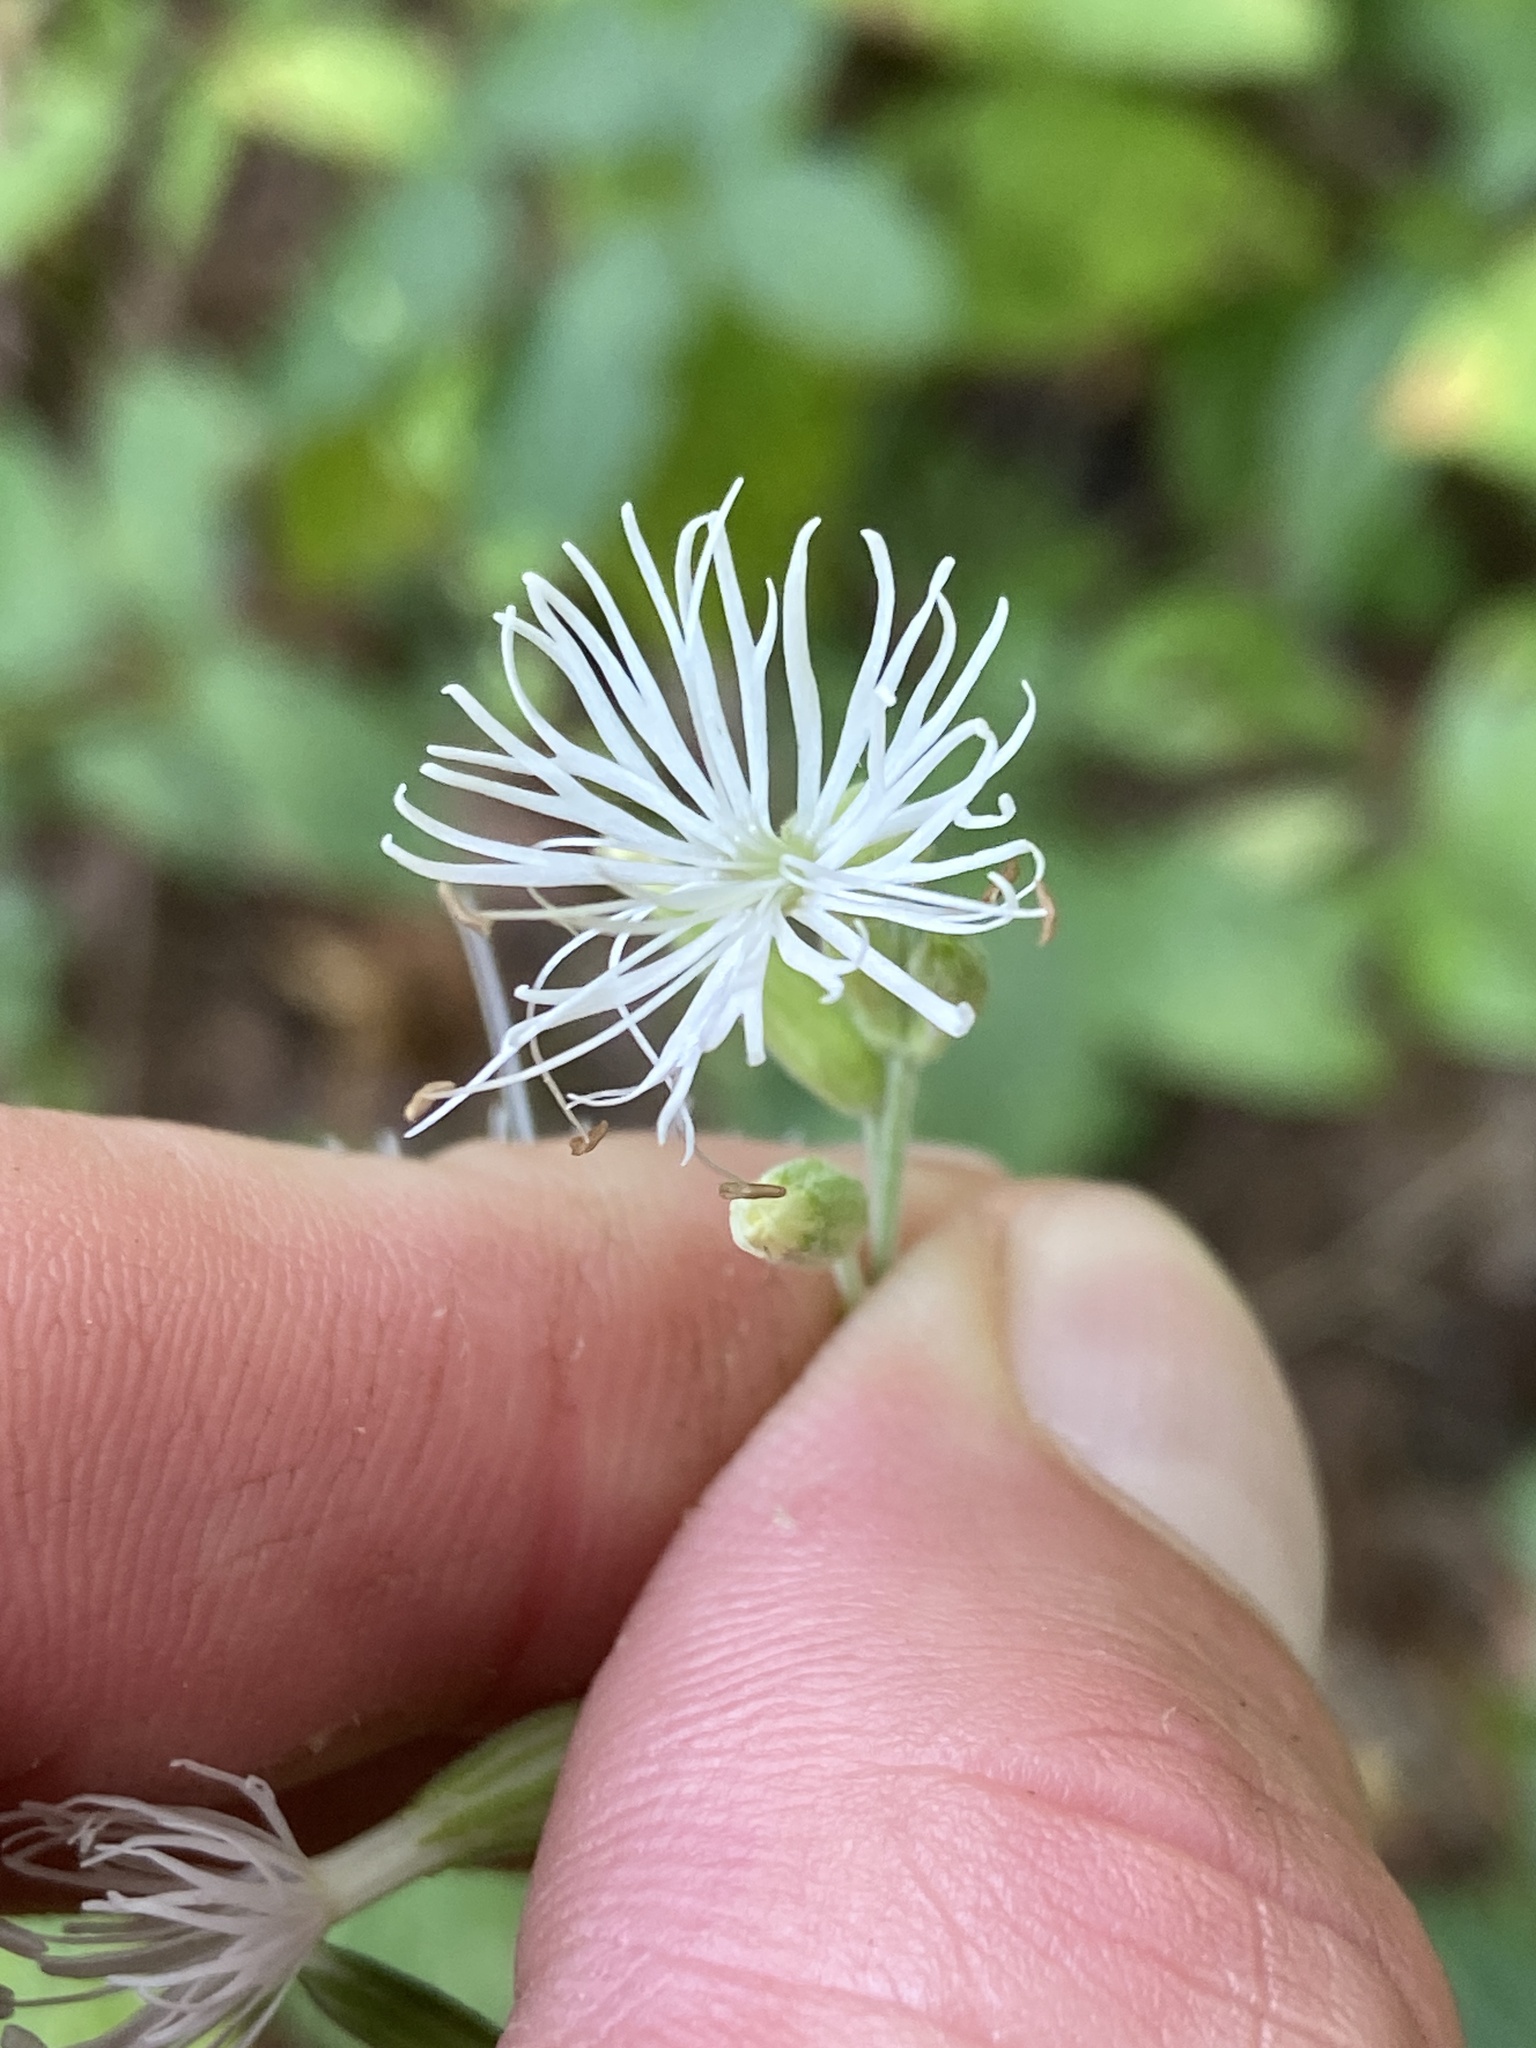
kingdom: Plantae
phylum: Tracheophyta
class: Magnoliopsida
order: Caryophyllales
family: Caryophyllaceae
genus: Silene
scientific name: Silene ovata
